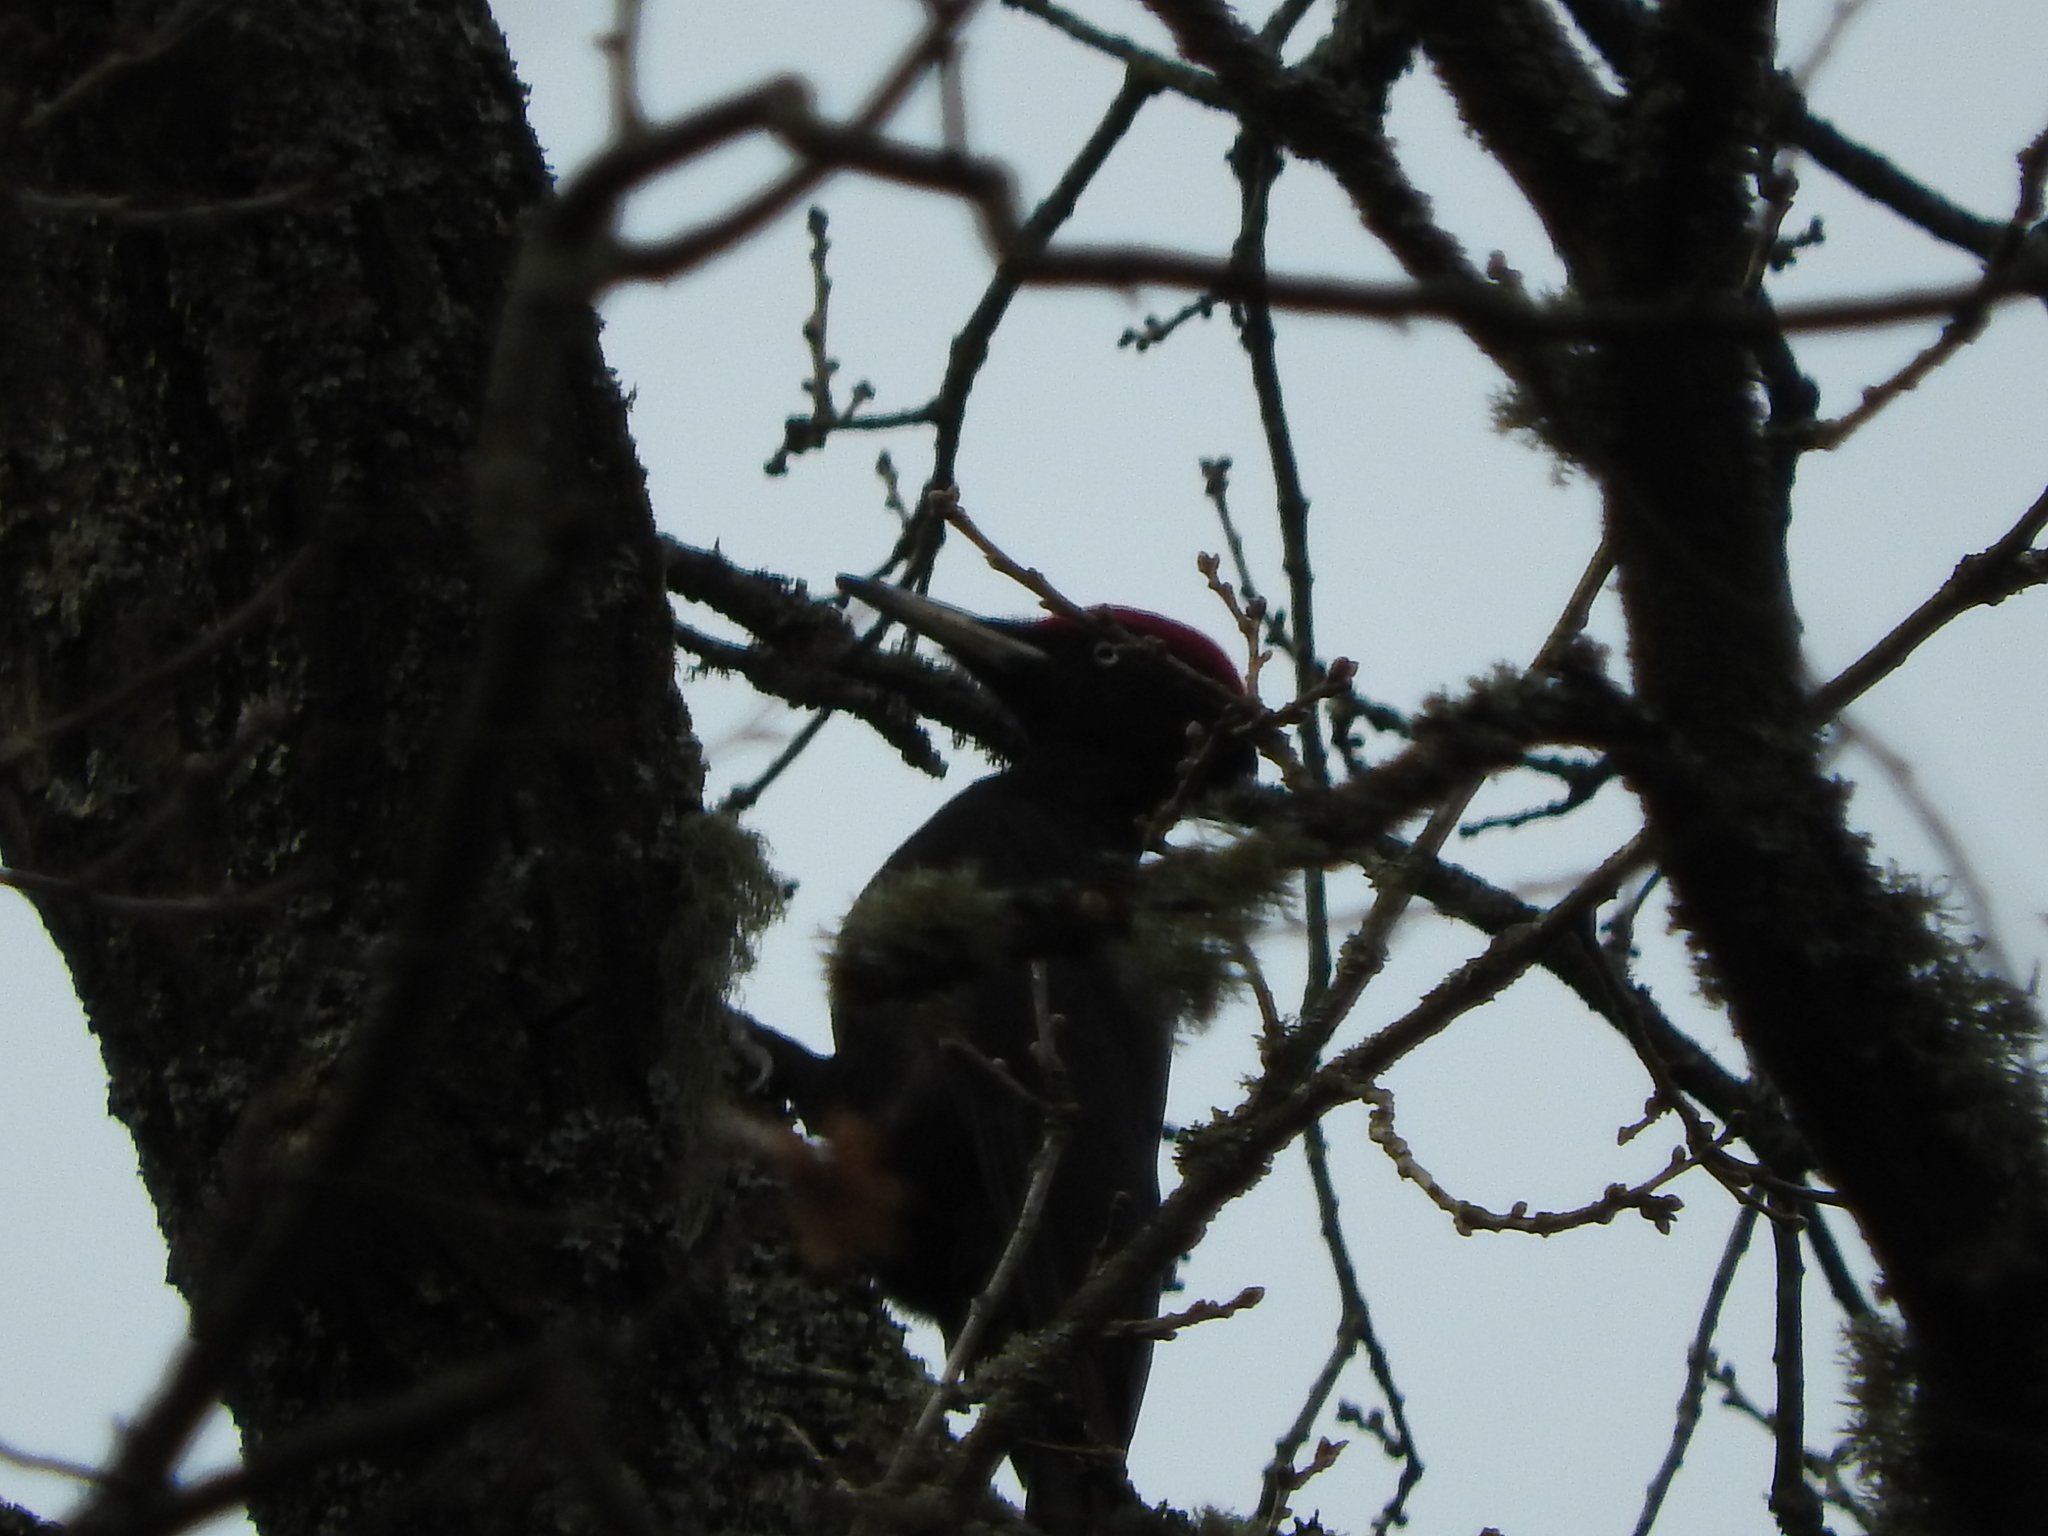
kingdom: Animalia
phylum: Chordata
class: Aves
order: Piciformes
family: Picidae
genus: Dryocopus
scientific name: Dryocopus martius
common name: Black woodpecker
